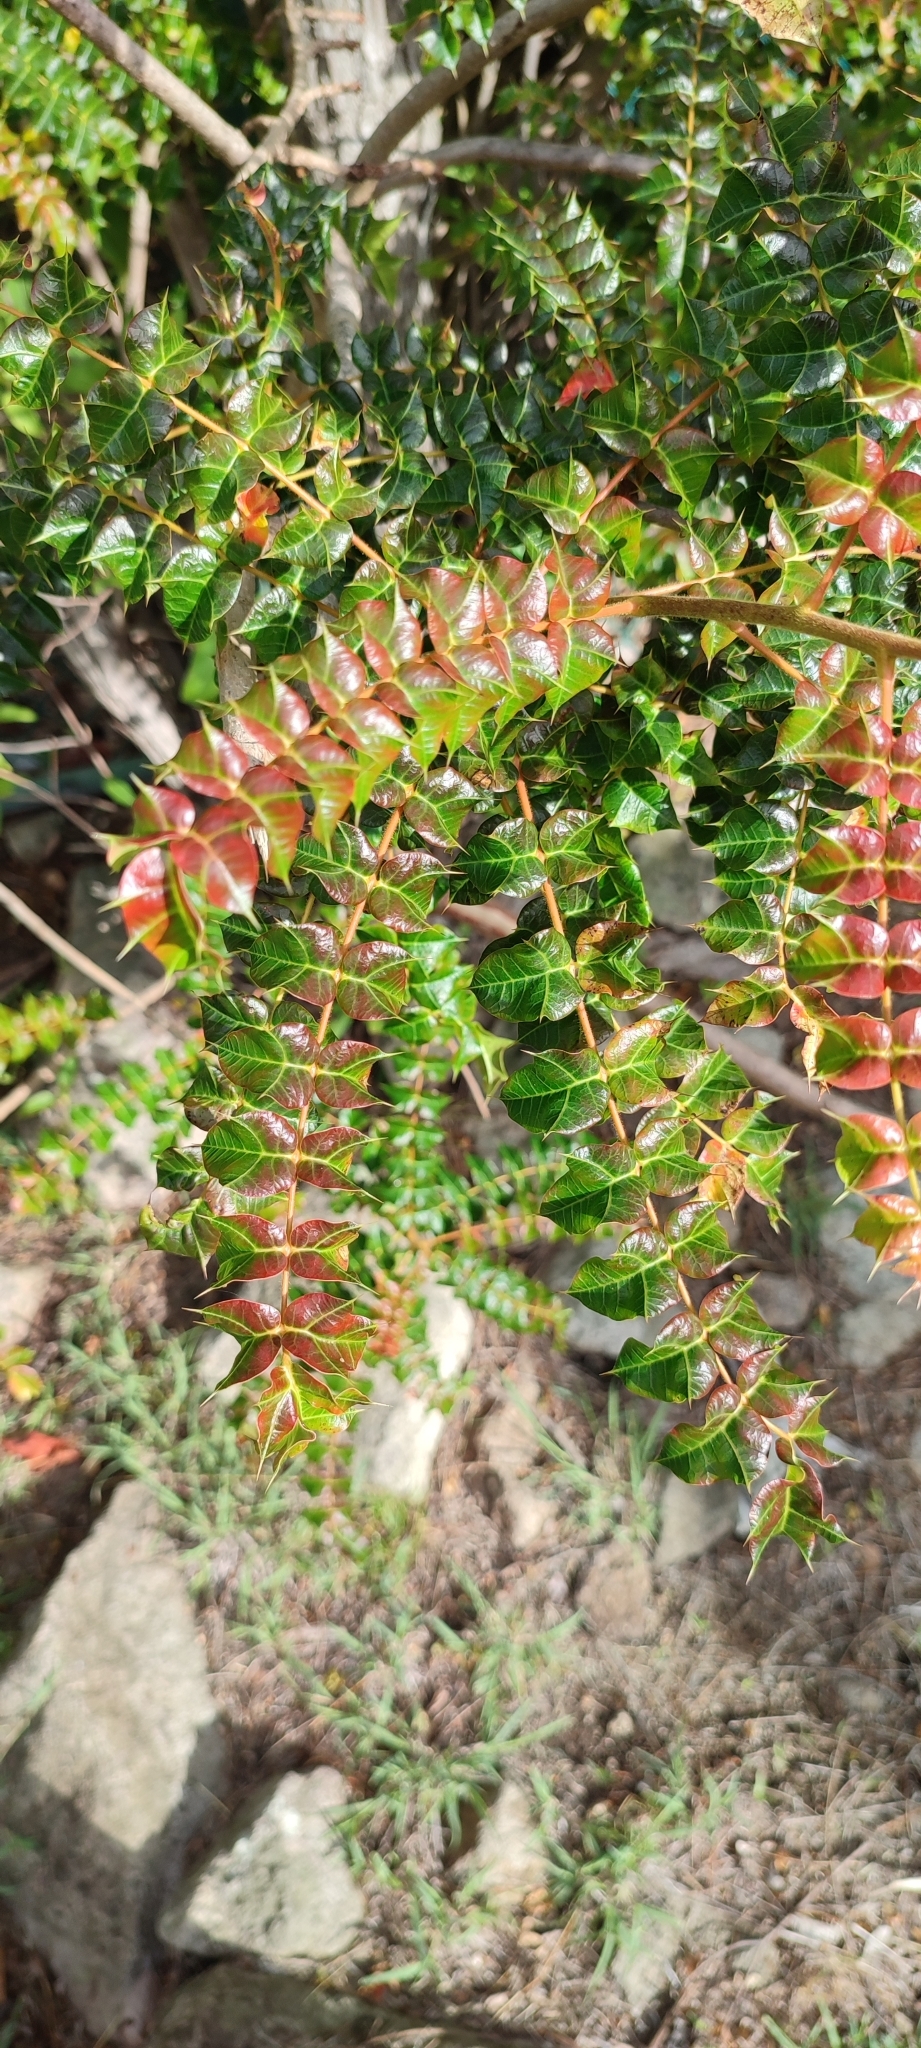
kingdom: Plantae
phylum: Tracheophyta
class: Magnoliopsida
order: Sapindales
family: Anacardiaceae
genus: Comocladia
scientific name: Comocladia dodonaea
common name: Poison ash
